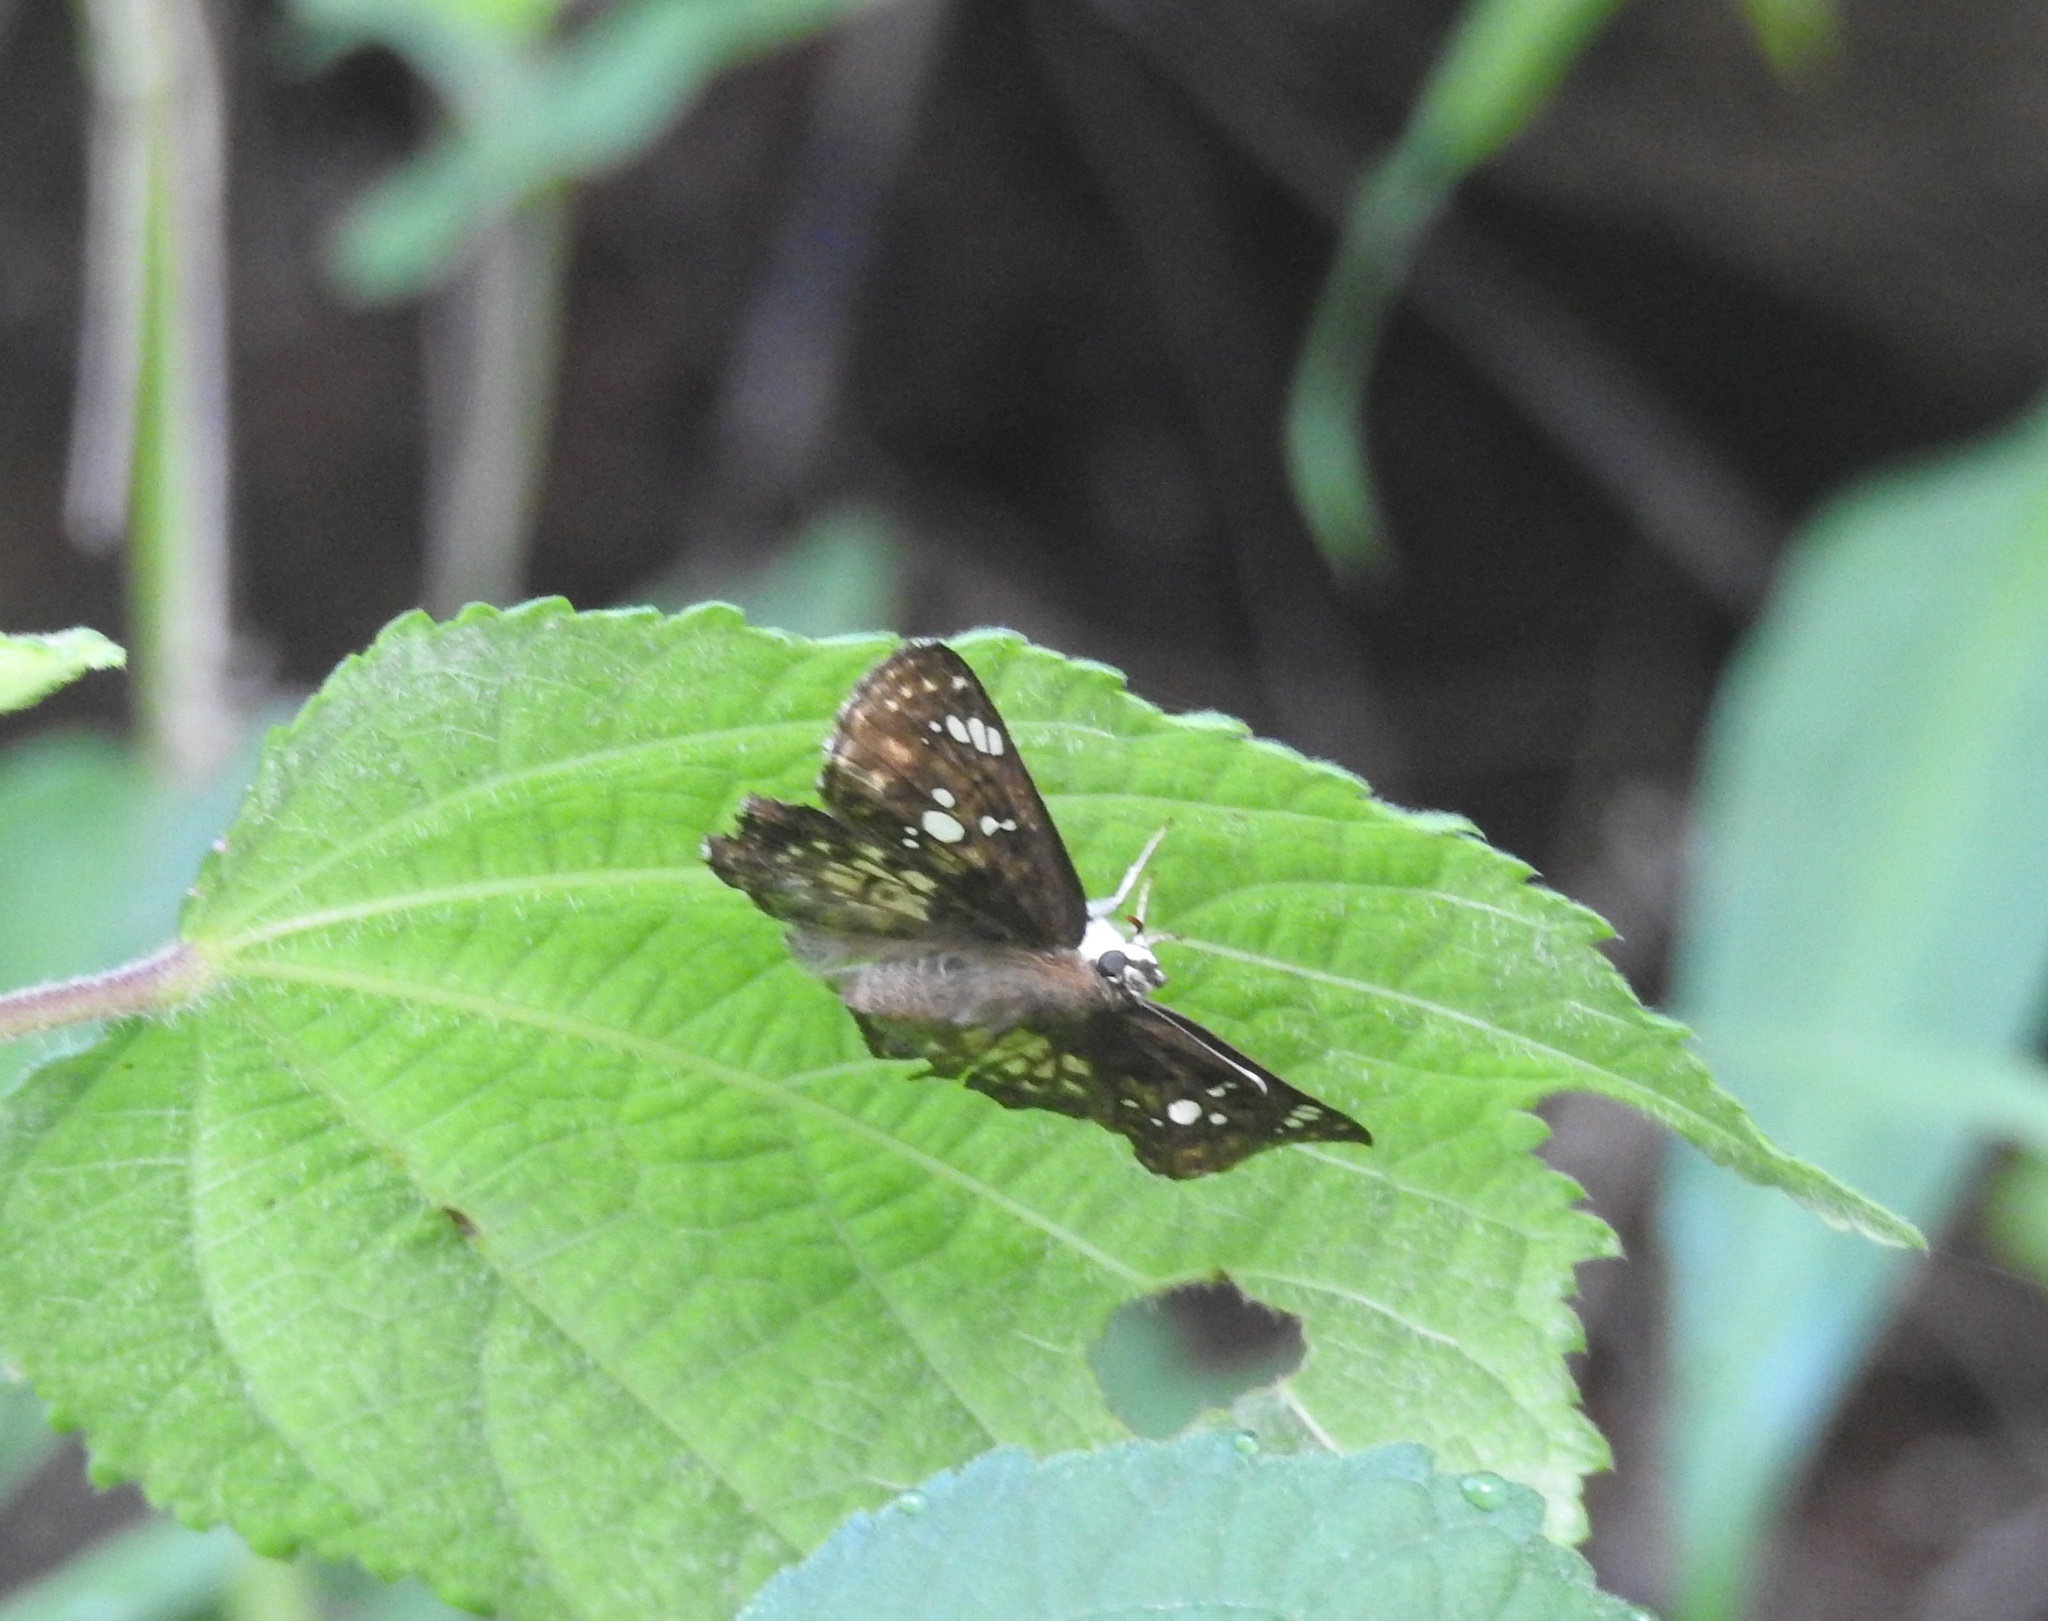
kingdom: Animalia
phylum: Arthropoda
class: Insecta
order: Lepidoptera
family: Hesperiidae
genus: Caprona
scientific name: Caprona ransonnettii
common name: Golden angle
